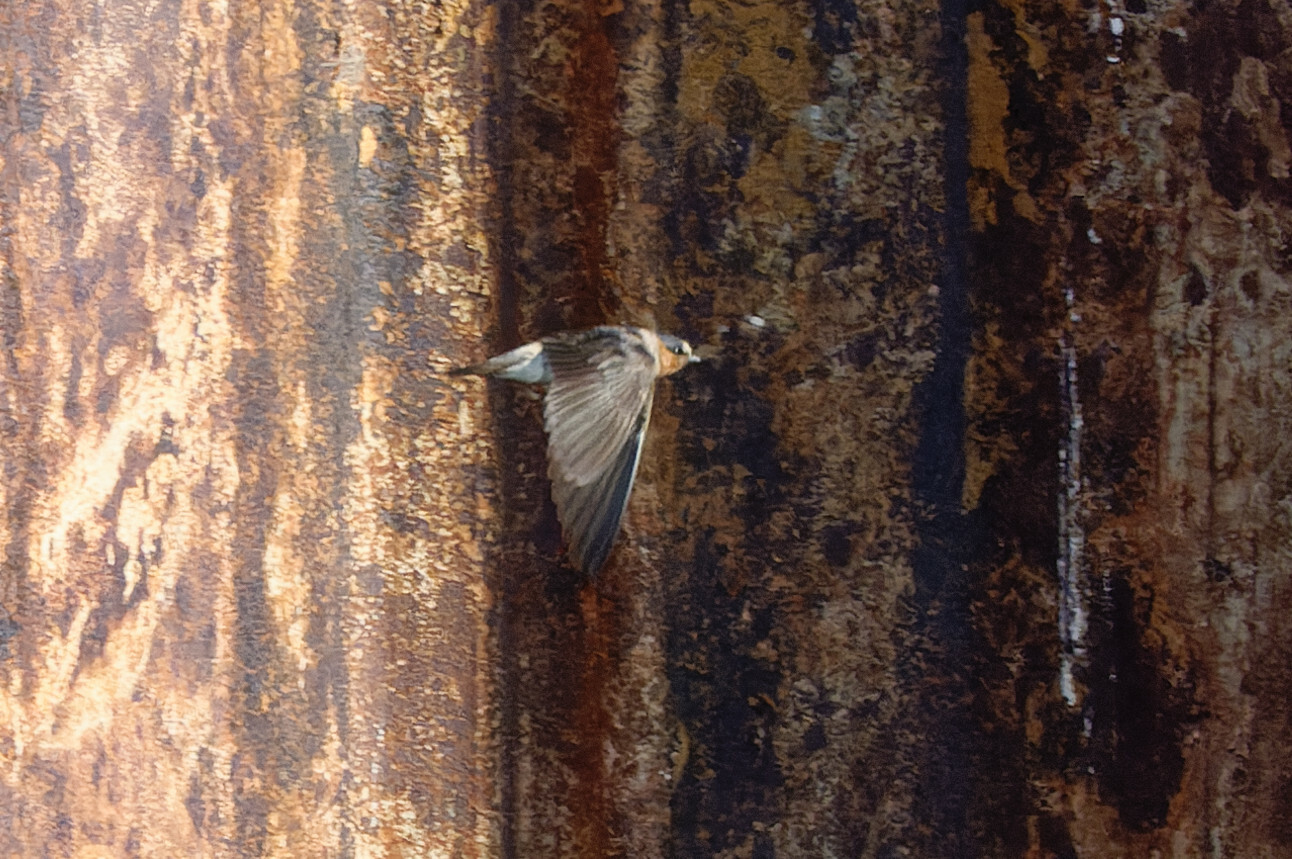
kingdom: Animalia
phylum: Chordata
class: Aves
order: Passeriformes
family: Hirundinidae
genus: Petrochelidon
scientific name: Petrochelidon pyrrhonota
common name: American cliff swallow
